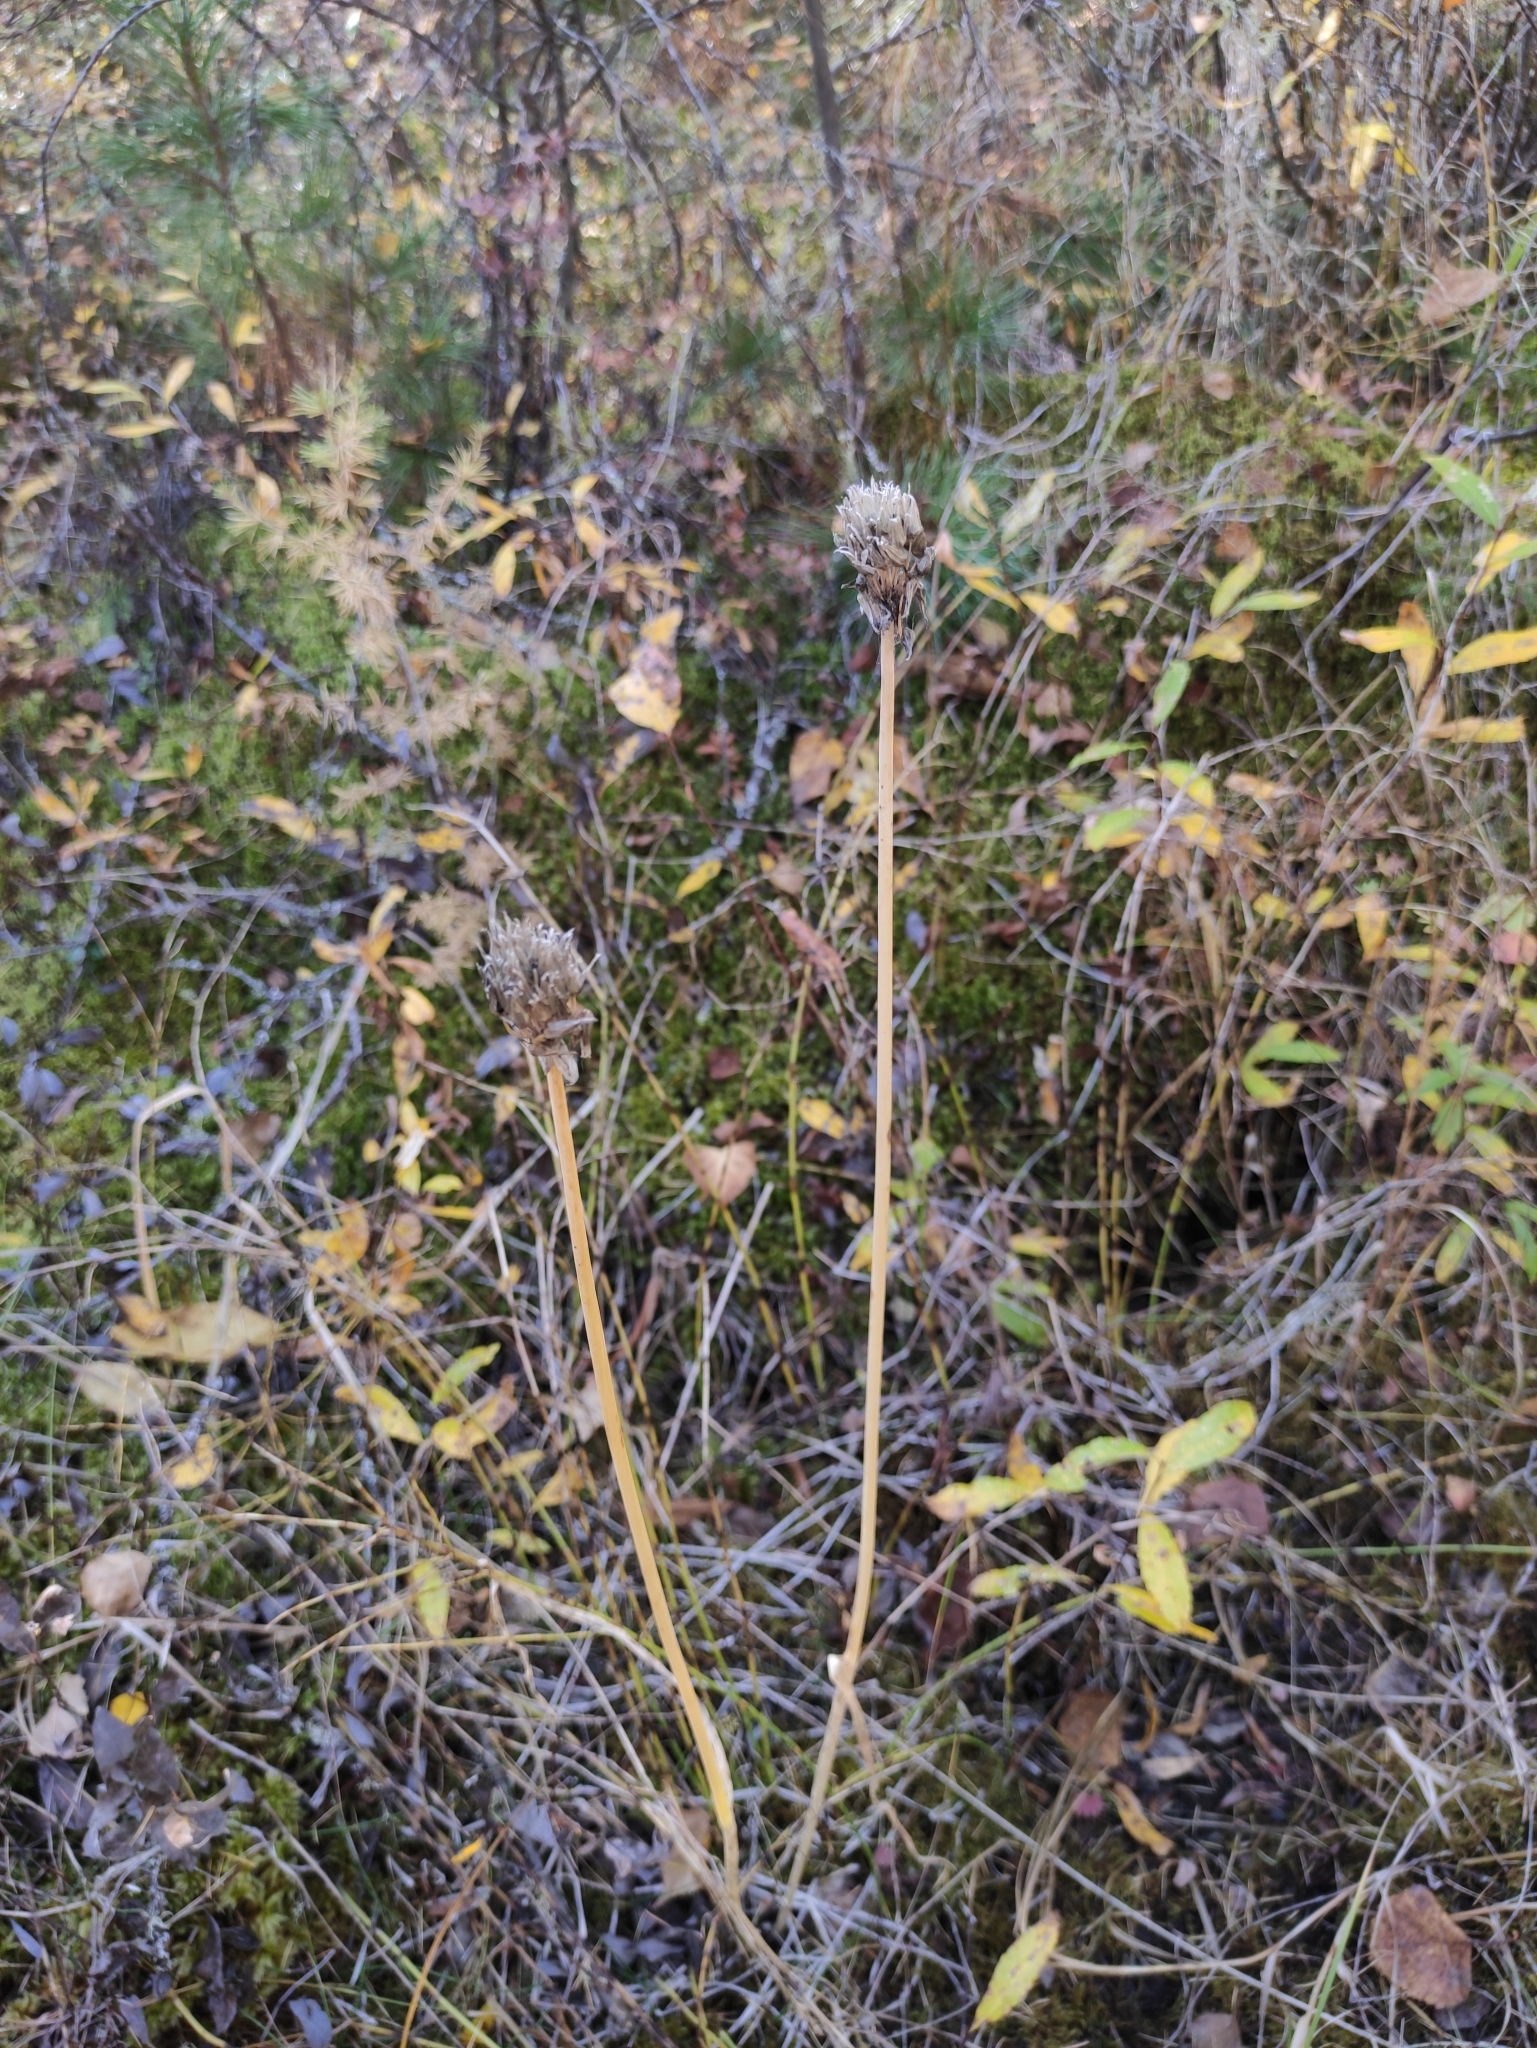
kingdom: Plantae
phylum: Tracheophyta
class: Liliopsida
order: Asparagales
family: Amaryllidaceae
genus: Allium
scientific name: Allium schoenoprasum
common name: Chives
